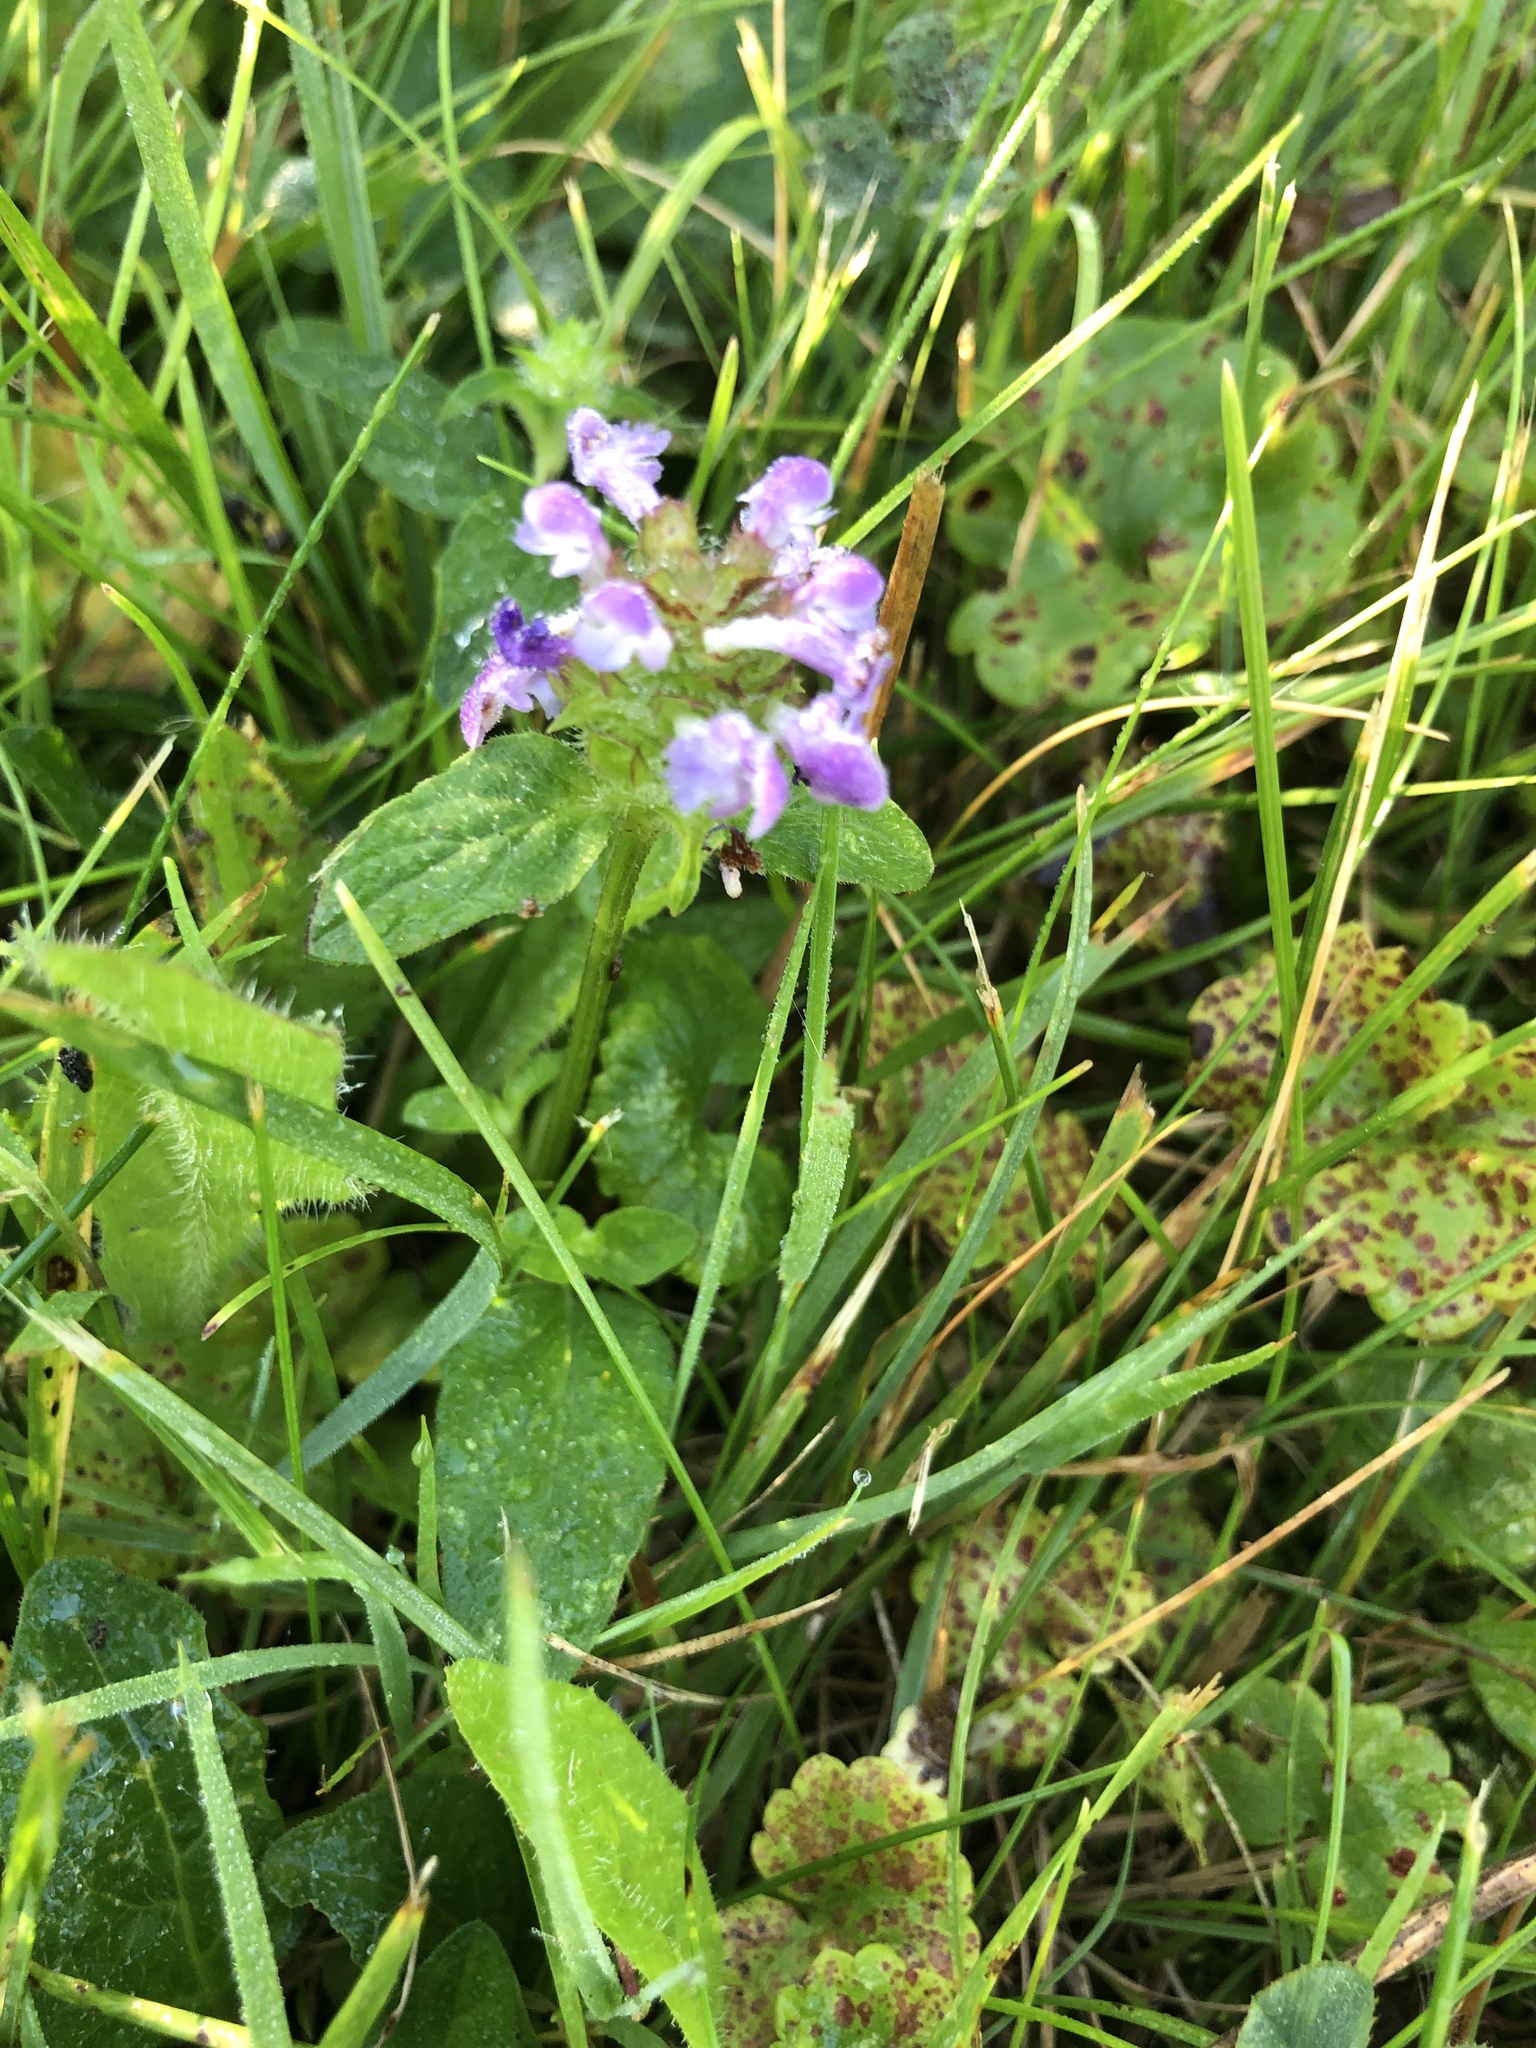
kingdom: Plantae
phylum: Tracheophyta
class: Magnoliopsida
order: Lamiales
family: Lamiaceae
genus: Prunella
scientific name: Prunella vulgaris
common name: Heal-all
